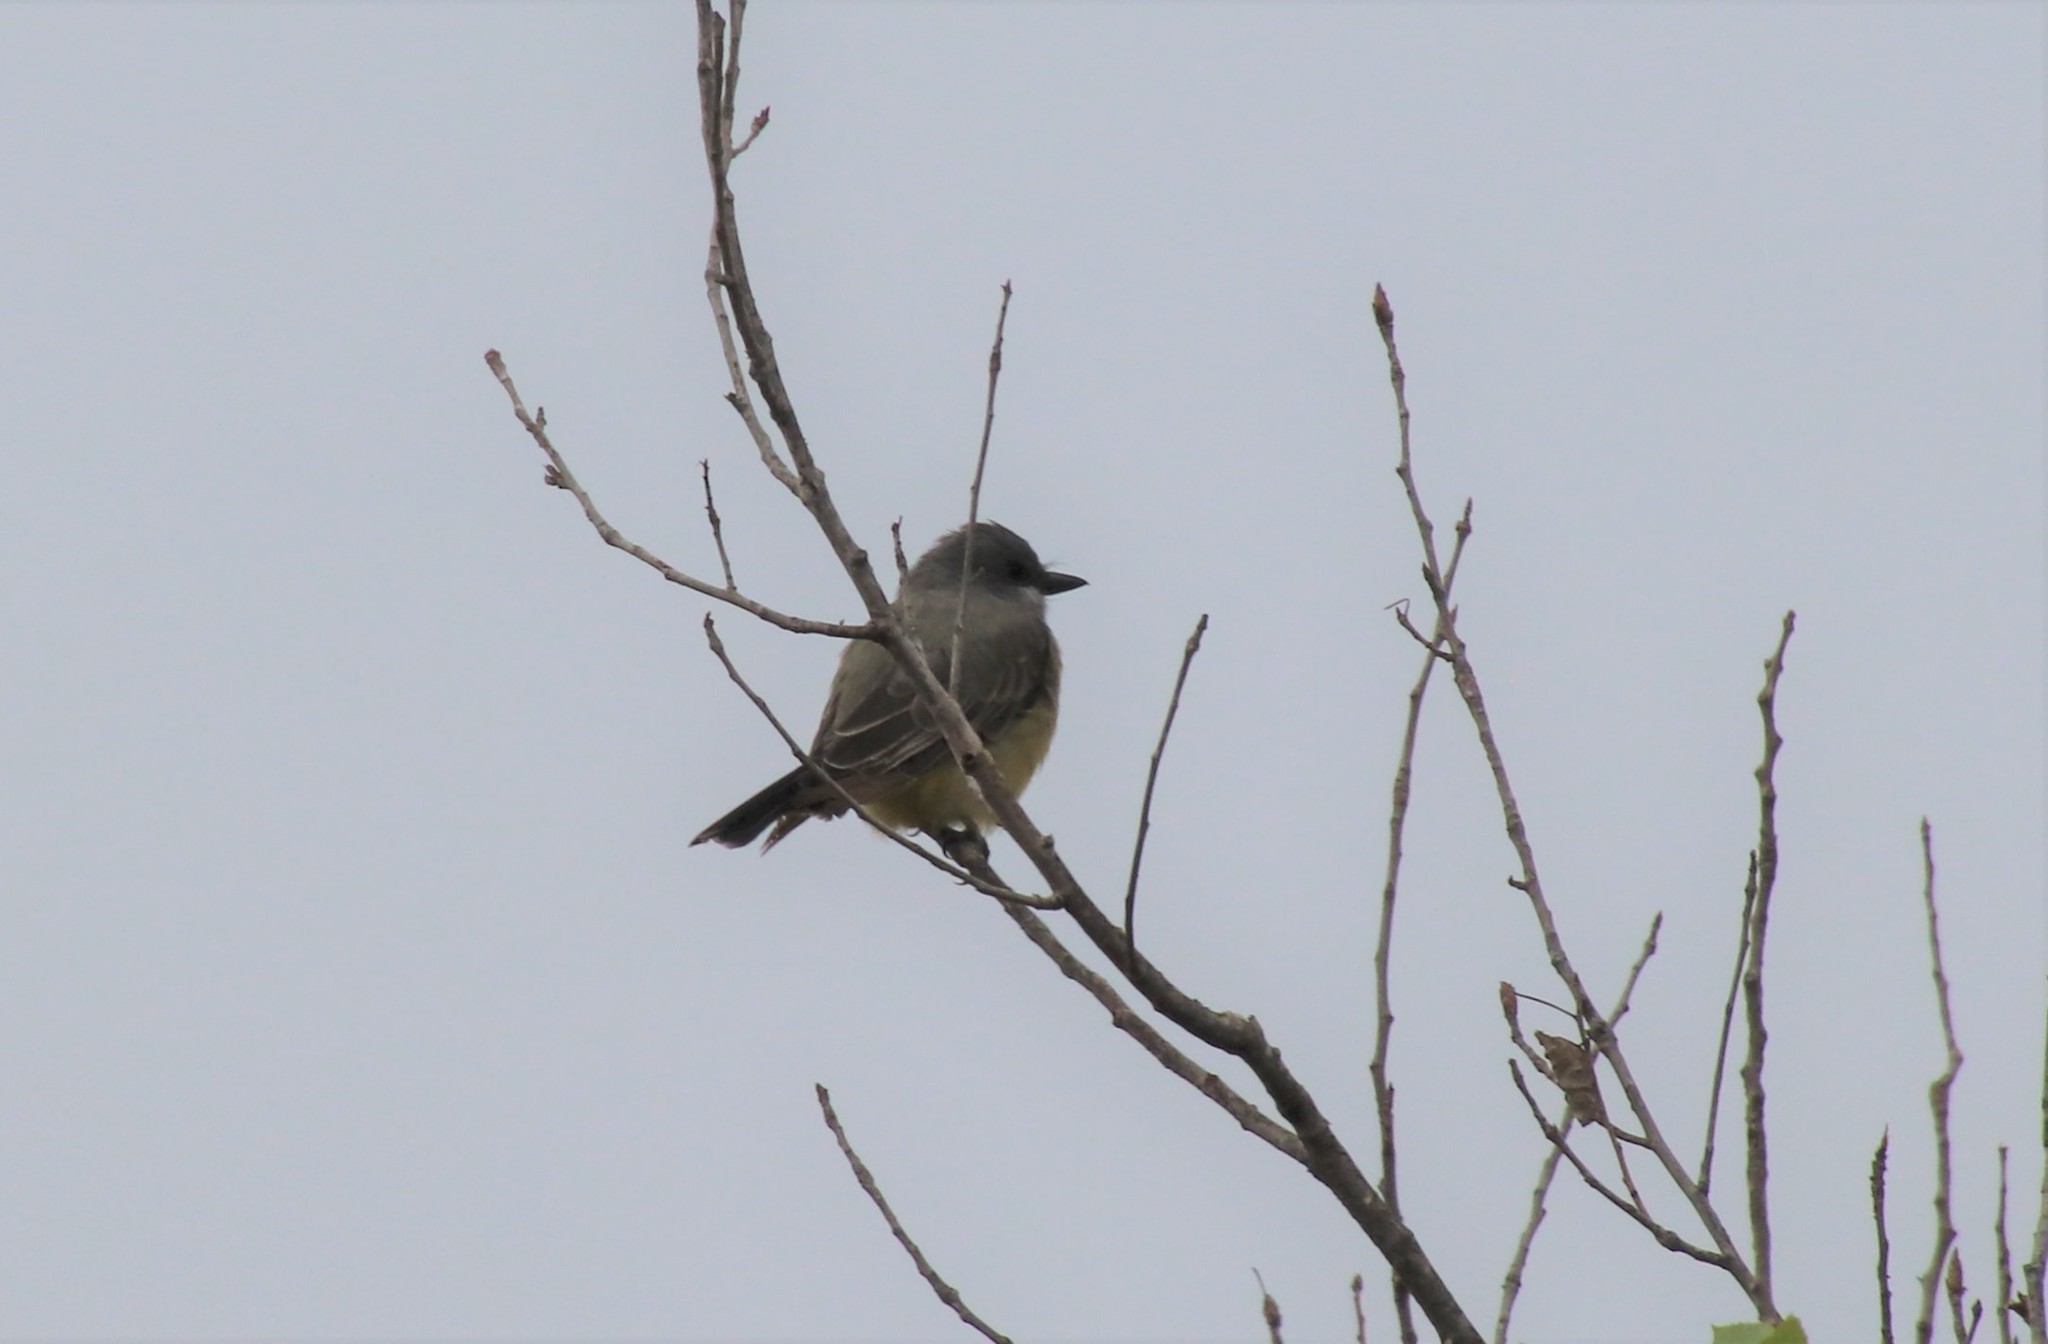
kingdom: Animalia
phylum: Chordata
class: Aves
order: Passeriformes
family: Tyrannidae
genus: Tyrannus
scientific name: Tyrannus vociferans
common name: Cassin's kingbird
